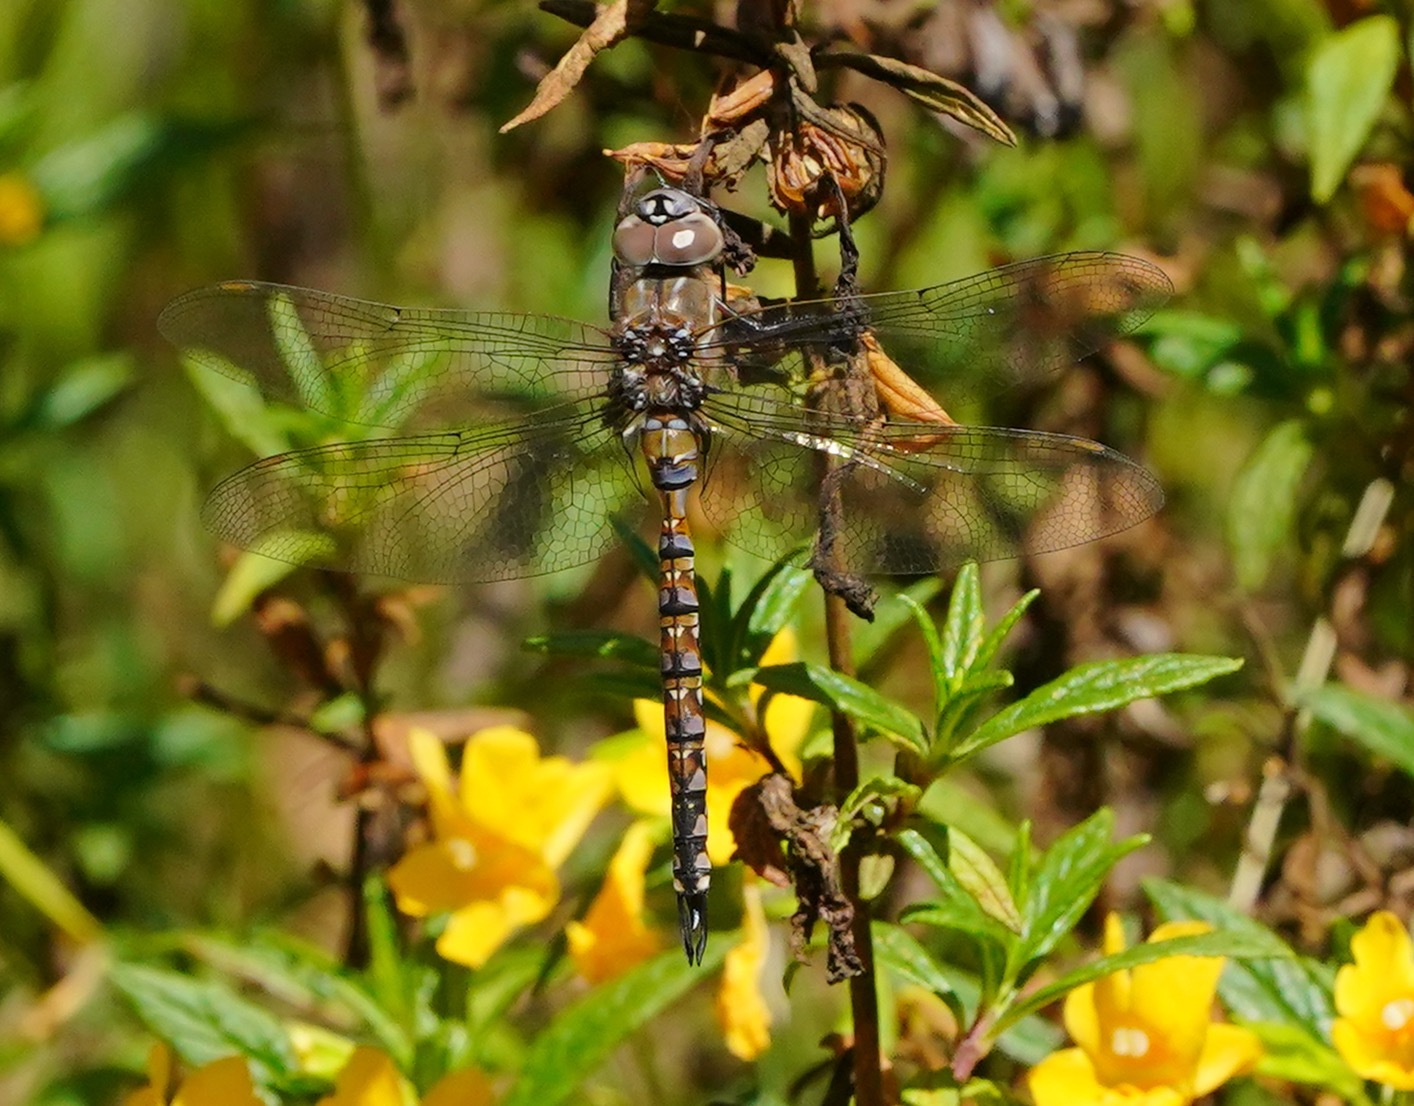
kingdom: Animalia
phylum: Arthropoda
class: Insecta
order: Odonata
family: Aeshnidae
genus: Rhionaeschna
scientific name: Rhionaeschna multicolor
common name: Blue-eyed darner
